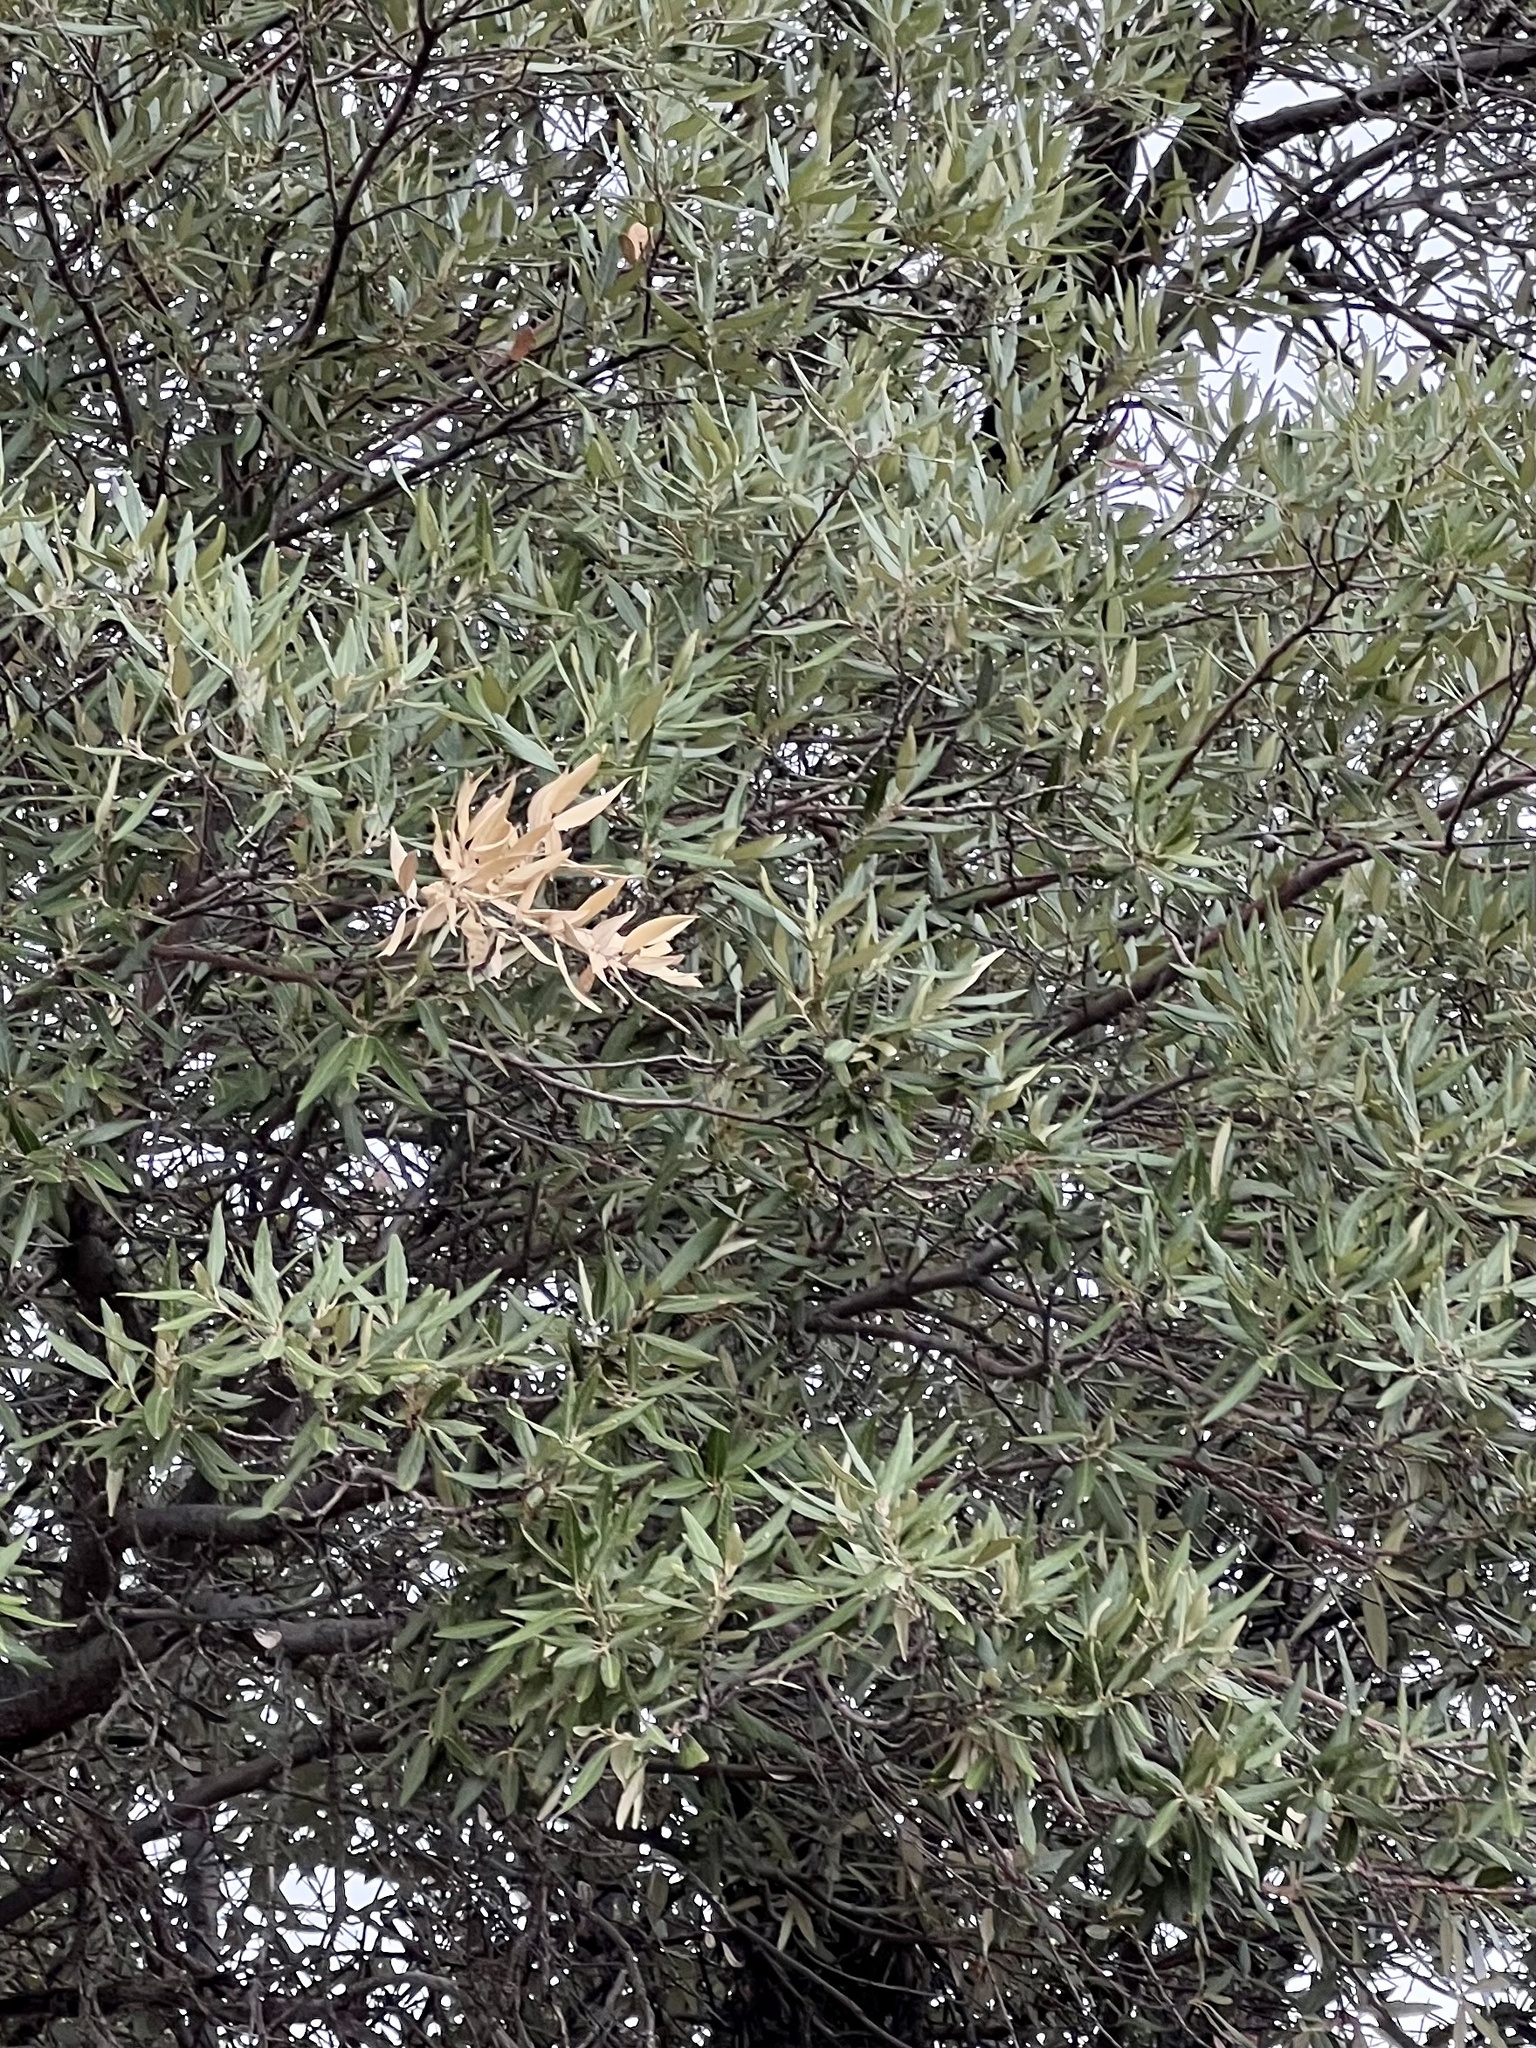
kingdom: Plantae
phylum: Tracheophyta
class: Magnoliopsida
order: Fagales
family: Fagaceae
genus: Quercus
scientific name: Quercus hypoleucoides
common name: Silverleaf oak
